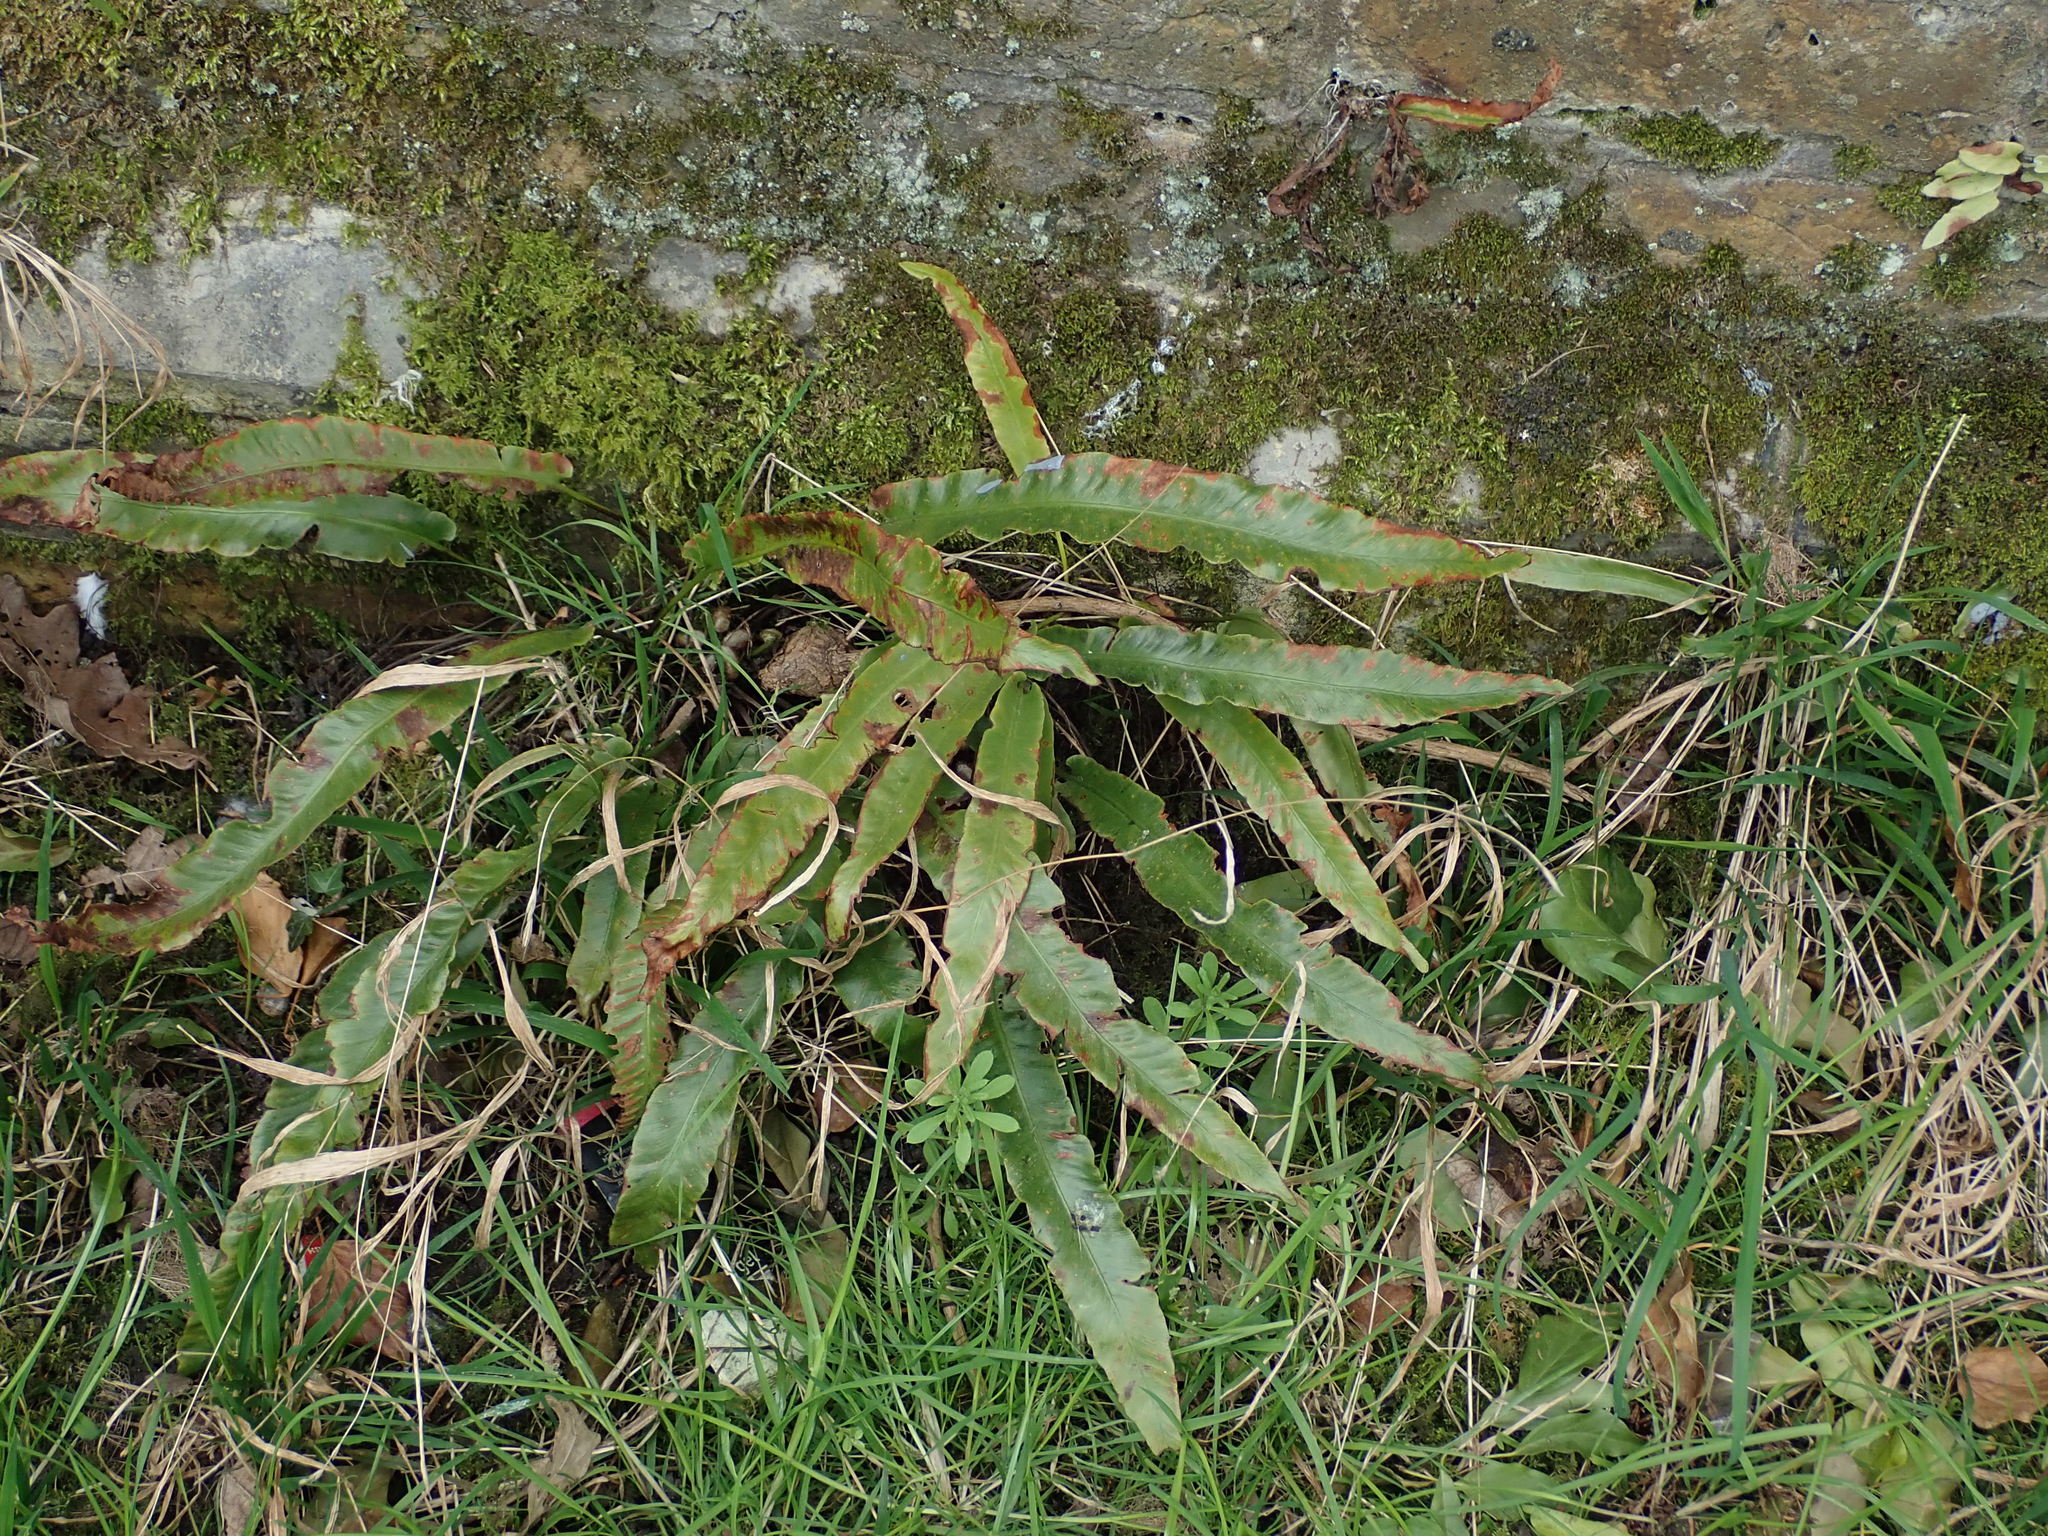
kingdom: Plantae
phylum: Tracheophyta
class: Polypodiopsida
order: Polypodiales
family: Aspleniaceae
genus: Asplenium
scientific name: Asplenium scolopendrium
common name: Hart's-tongue fern
